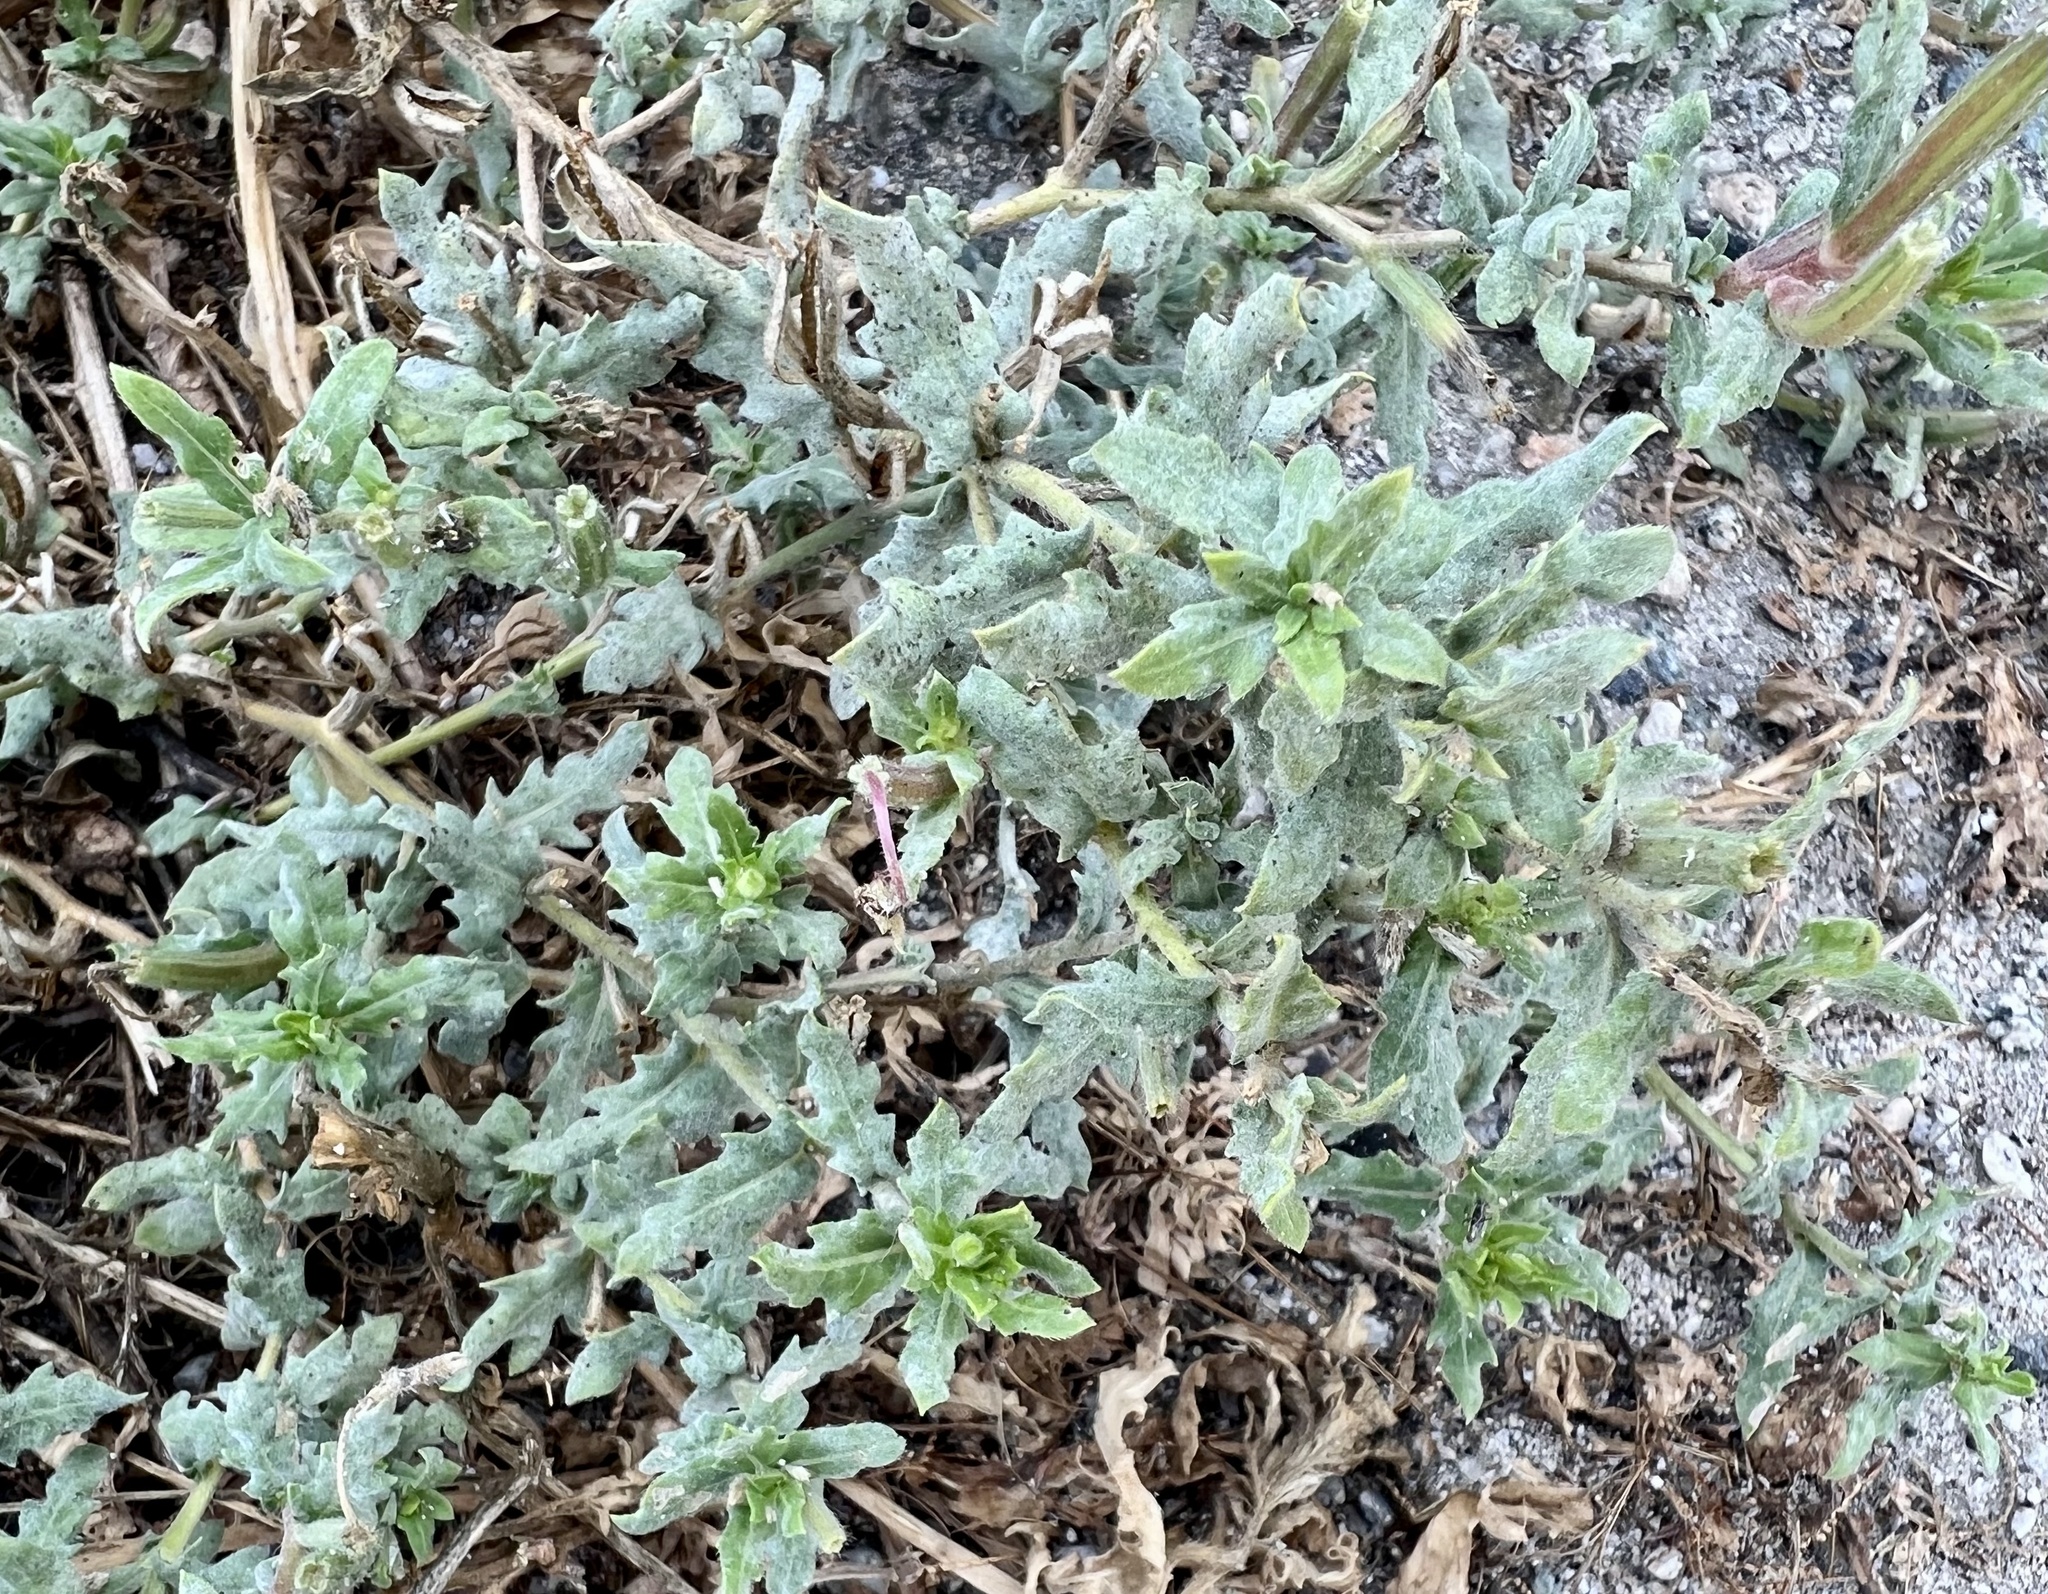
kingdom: Plantae
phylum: Tracheophyta
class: Magnoliopsida
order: Myrtales
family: Onagraceae
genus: Oenothera
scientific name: Oenothera laciniata
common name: Cut-leaved evening-primrose
